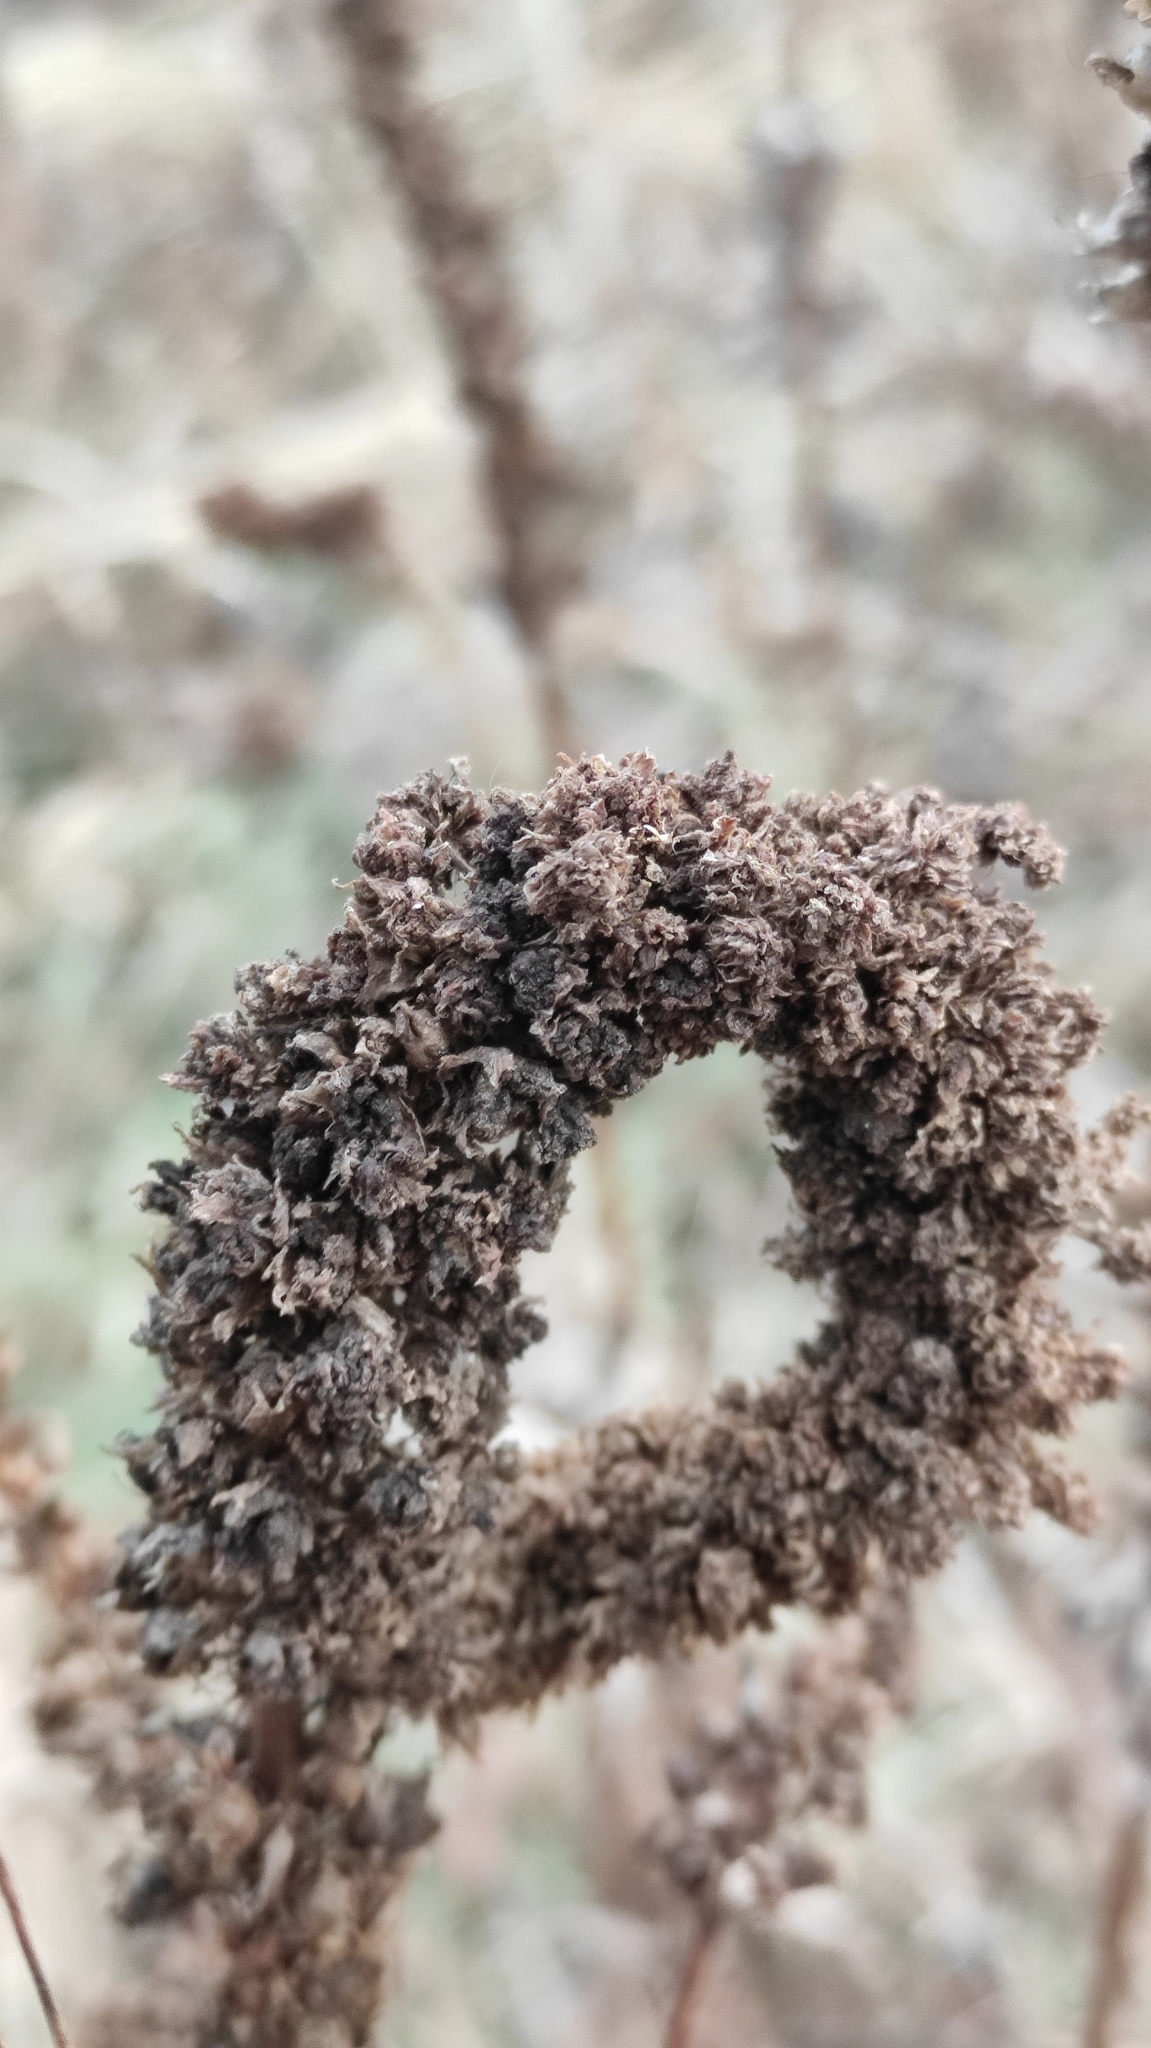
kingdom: Plantae
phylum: Tracheophyta
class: Magnoliopsida
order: Lamiales
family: Plantaginaceae
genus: Veronicastrum
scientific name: Veronicastrum sibiricum
